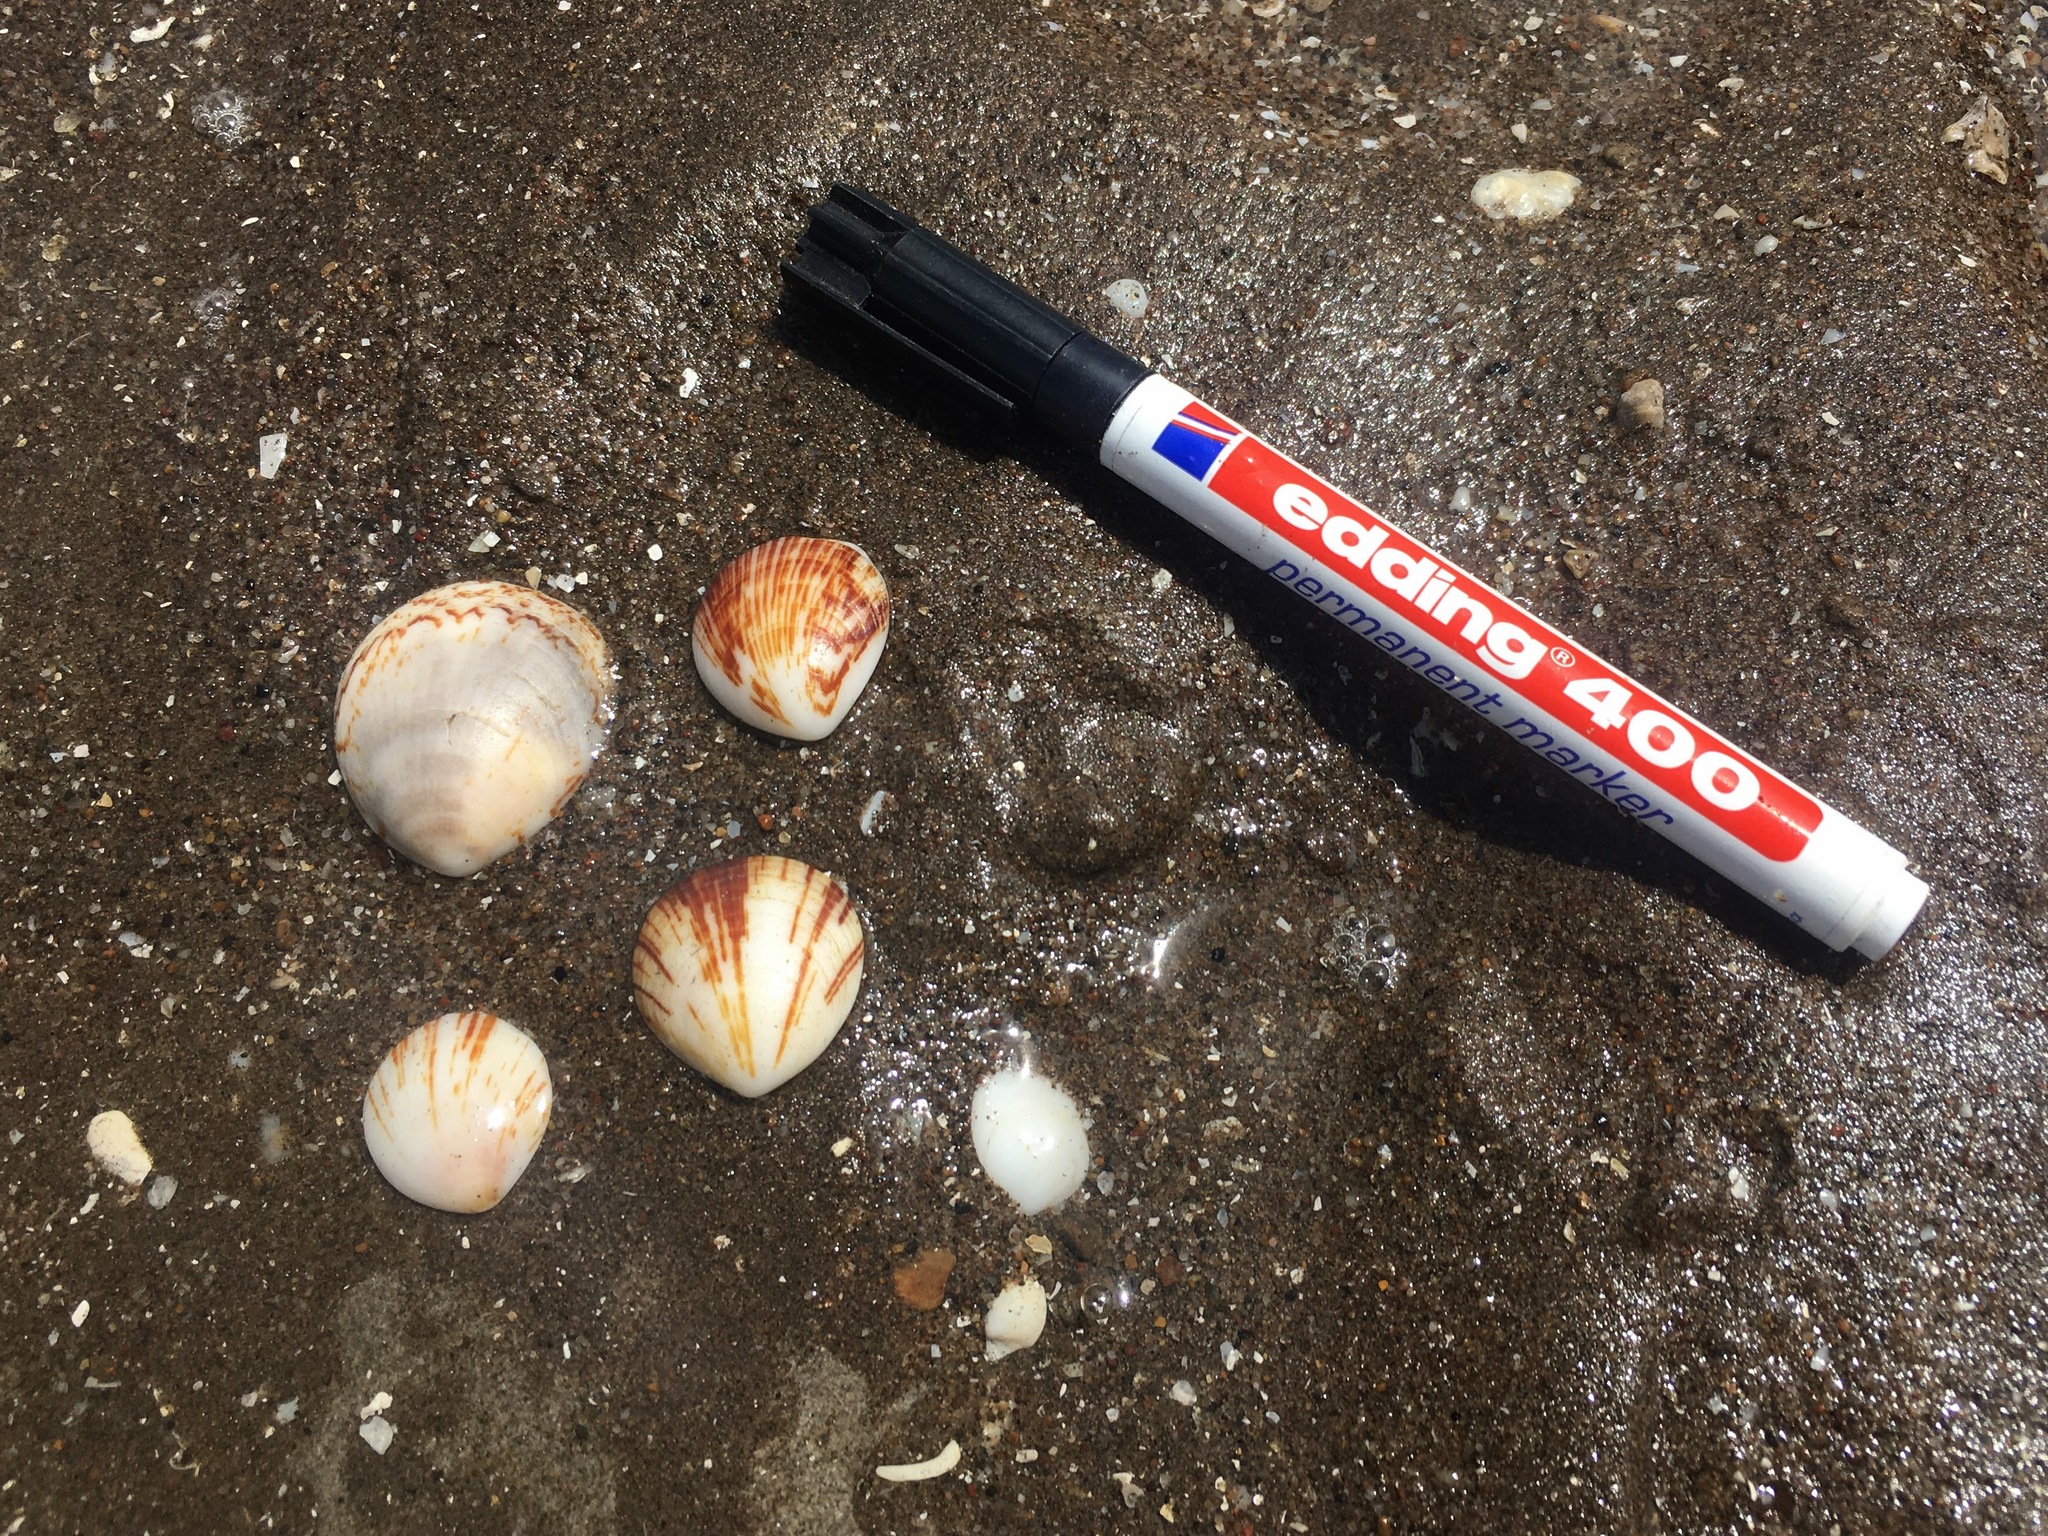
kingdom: Animalia
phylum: Mollusca
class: Bivalvia
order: Arcida
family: Glycymerididae
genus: Glycymeris
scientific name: Glycymeris longior
